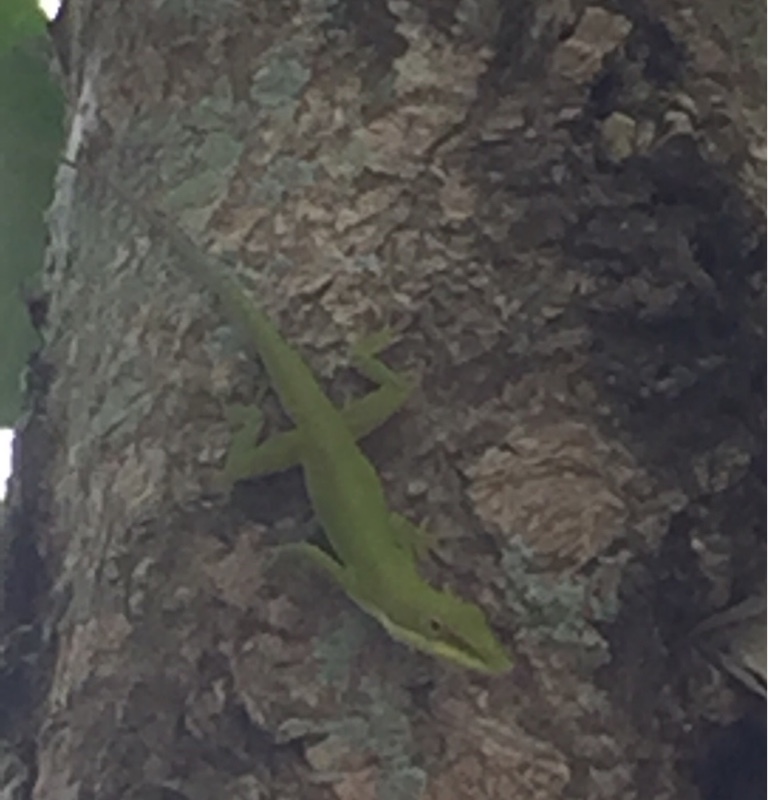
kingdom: Animalia
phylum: Chordata
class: Squamata
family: Dactyloidae
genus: Anolis
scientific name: Anolis porcatus
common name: Cuban green anole
